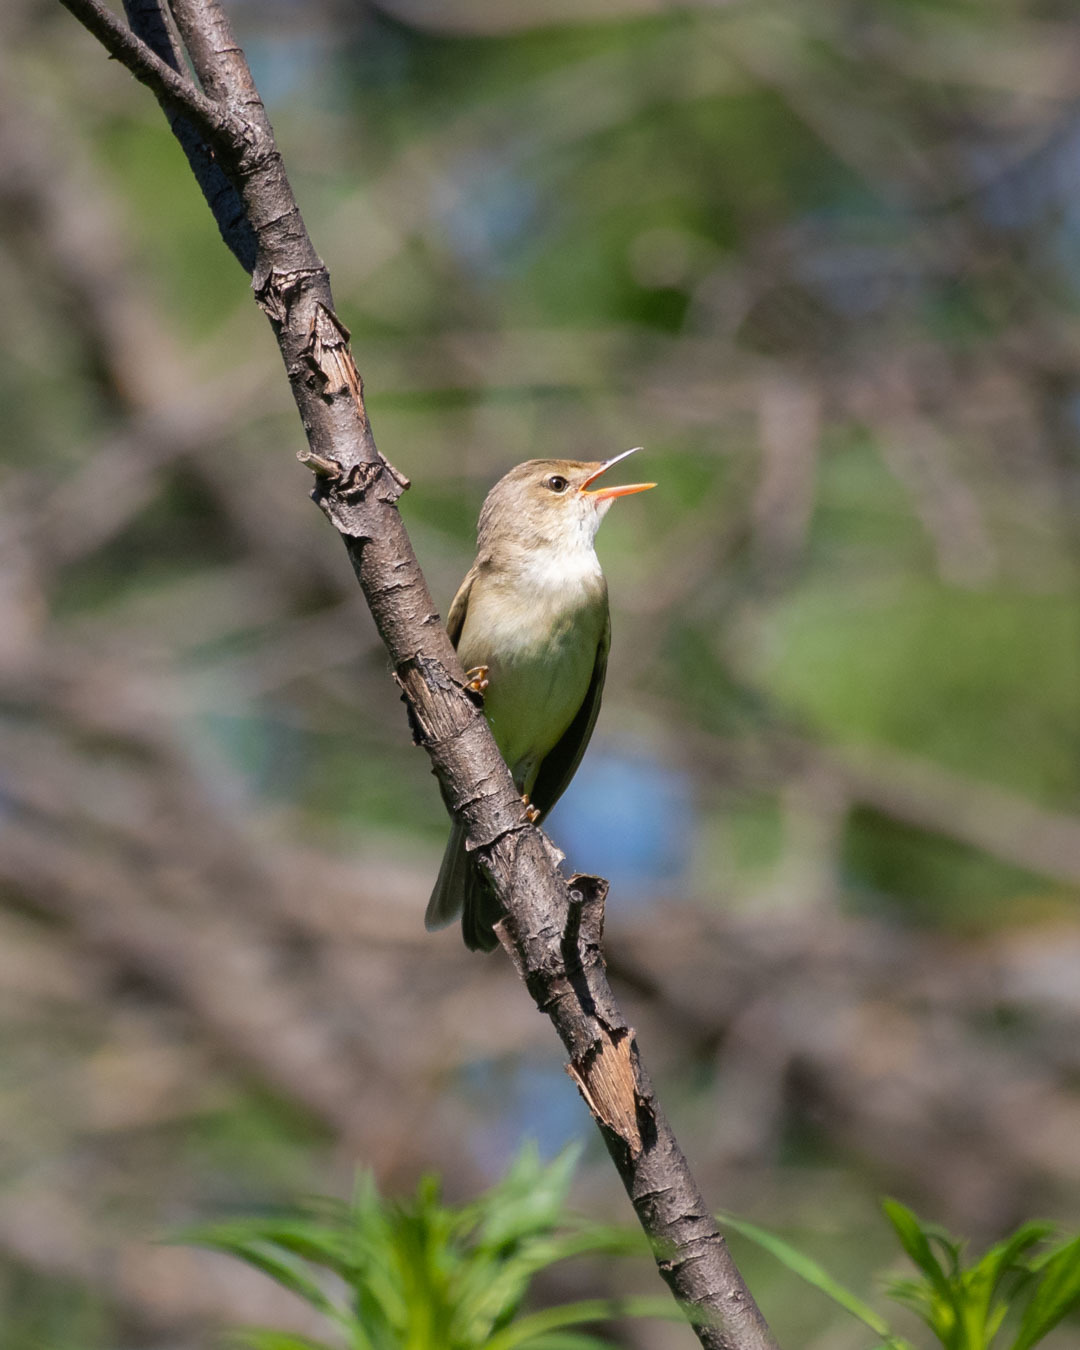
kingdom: Animalia
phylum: Chordata
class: Aves
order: Passeriformes
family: Acrocephalidae
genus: Acrocephalus
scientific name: Acrocephalus palustris
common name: Marsh warbler
